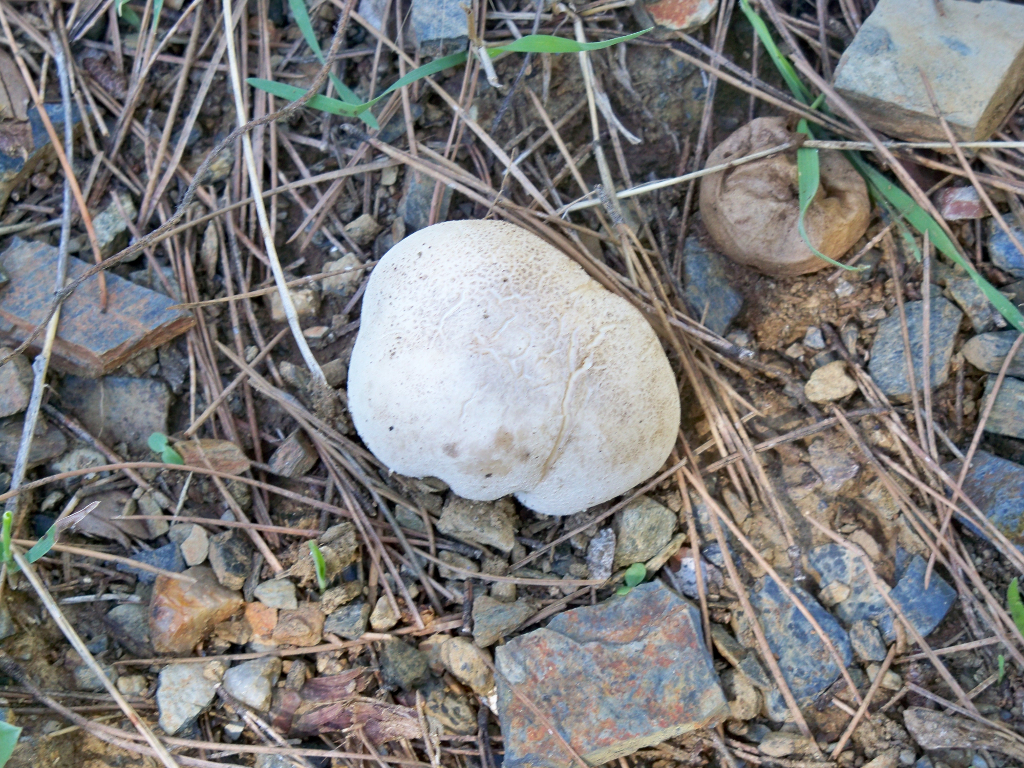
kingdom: Fungi
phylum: Basidiomycota
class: Agaricomycetes
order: Agaricales
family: Lycoperdaceae
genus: Bovistella
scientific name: Bovistella utriformis
